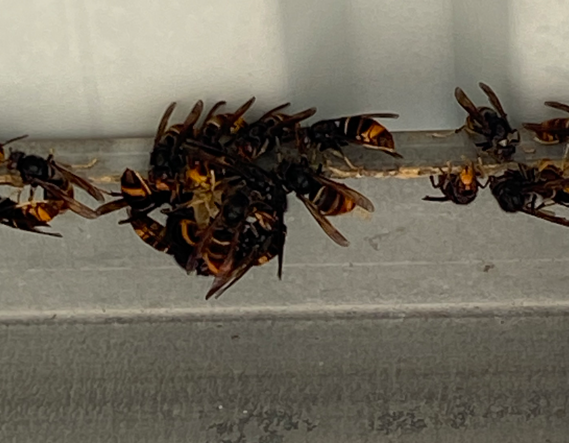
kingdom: Animalia
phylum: Arthropoda
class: Insecta
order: Hymenoptera
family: Vespidae
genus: Vespa
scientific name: Vespa velutina
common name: Asian hornet
